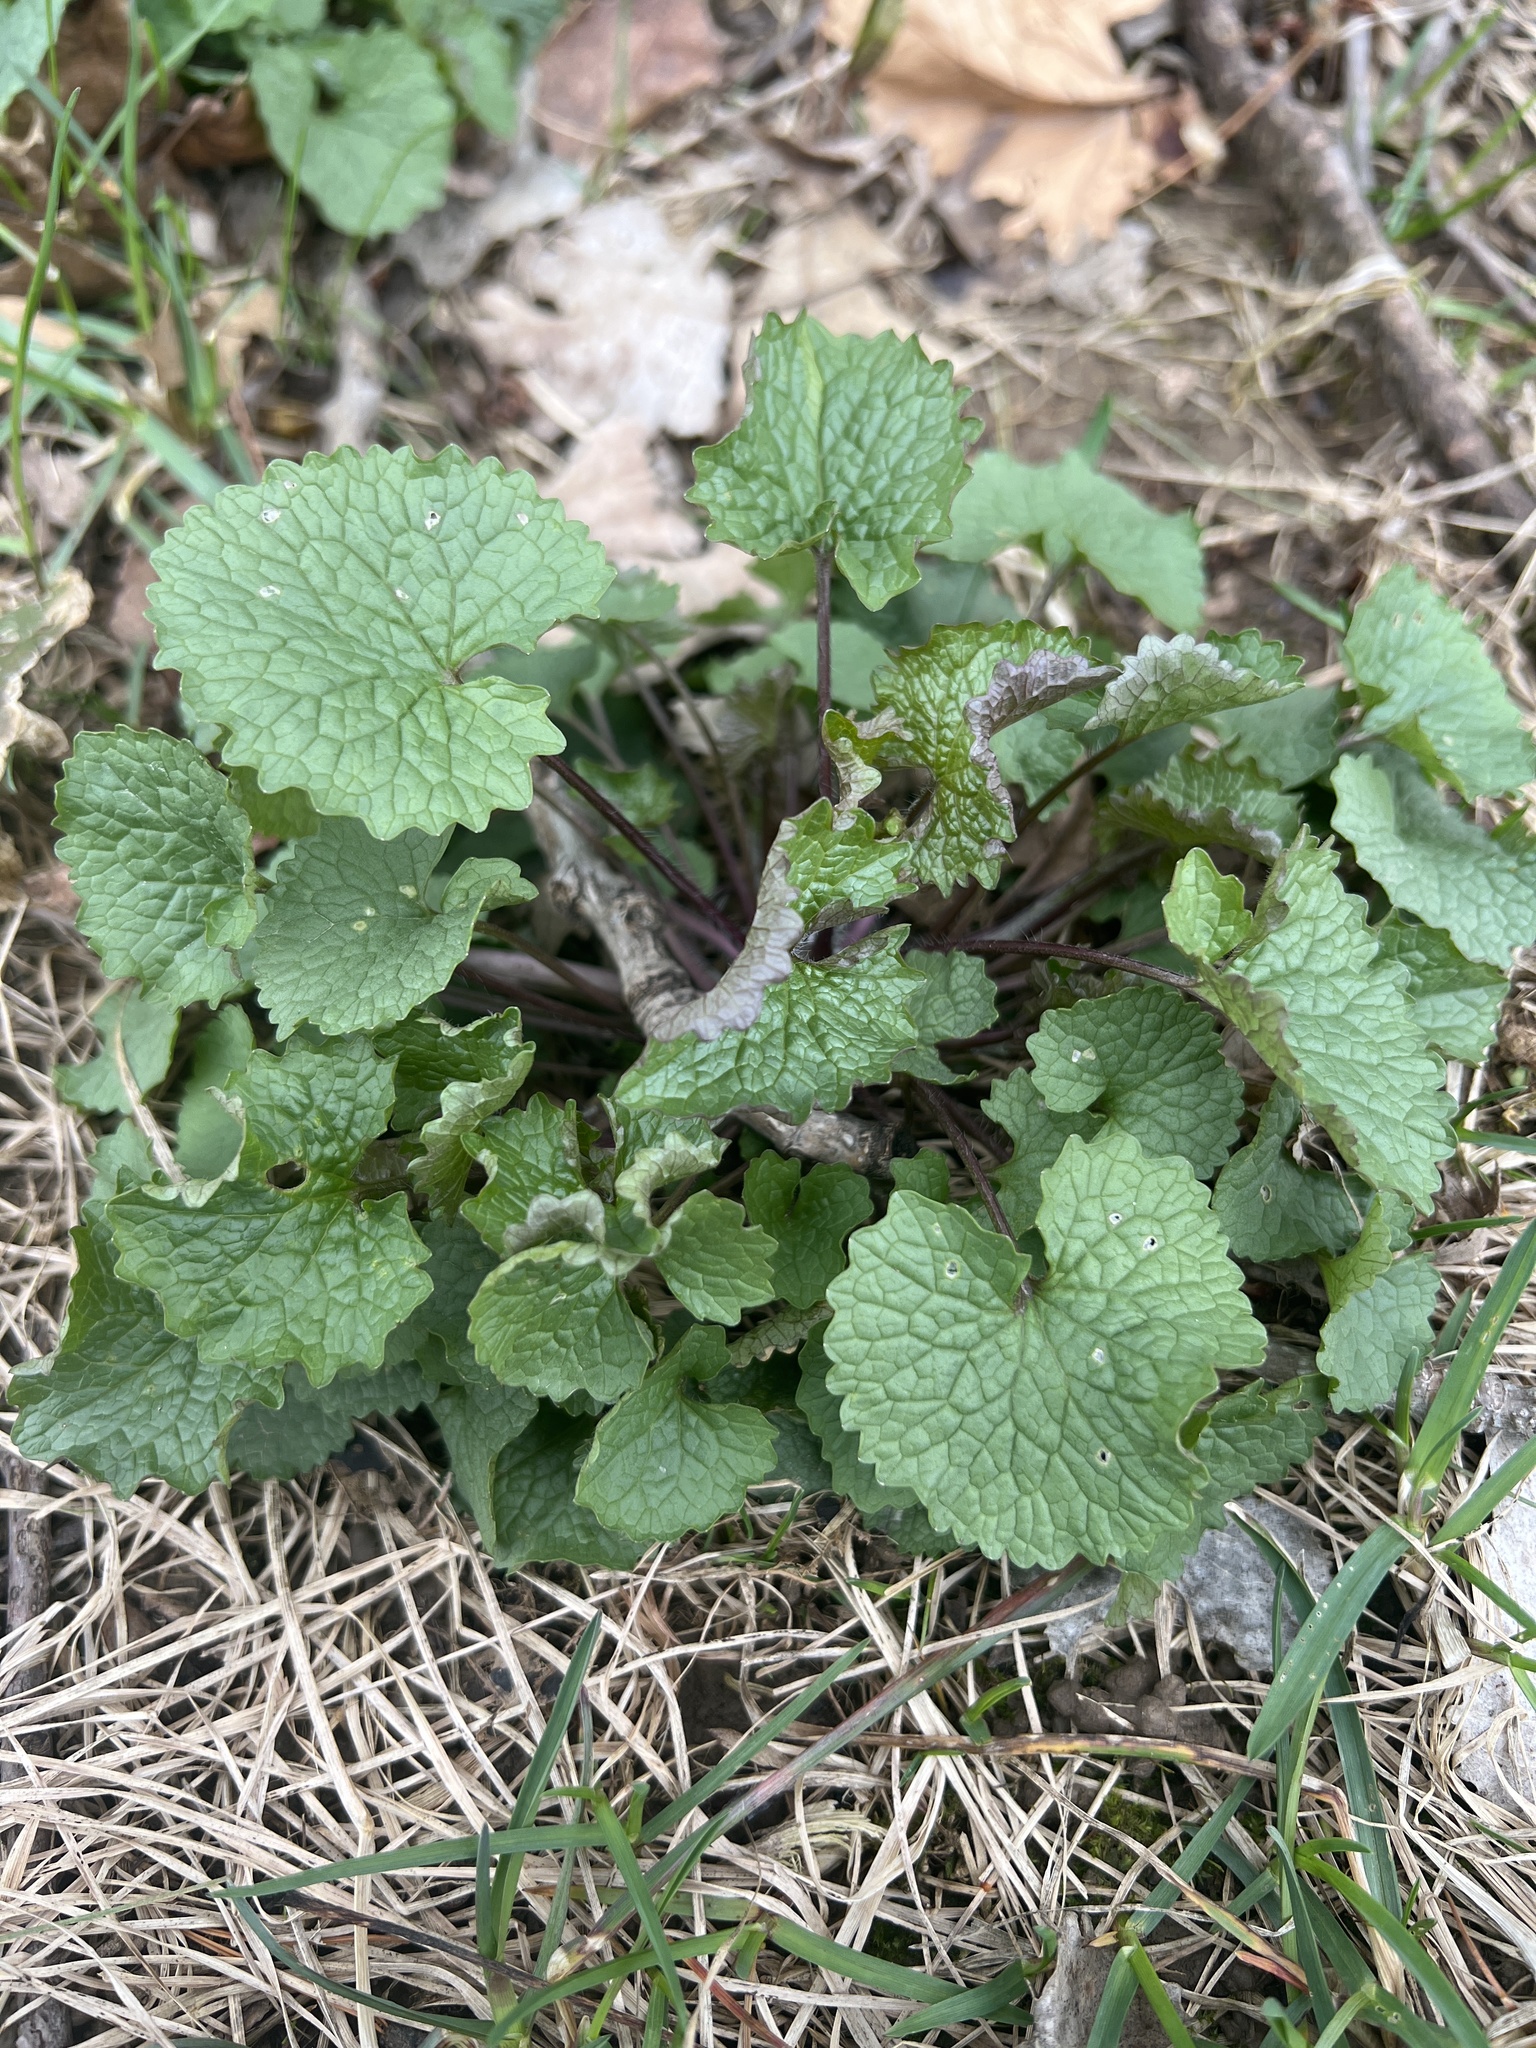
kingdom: Plantae
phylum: Tracheophyta
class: Magnoliopsida
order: Brassicales
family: Brassicaceae
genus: Alliaria
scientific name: Alliaria petiolata
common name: Garlic mustard
